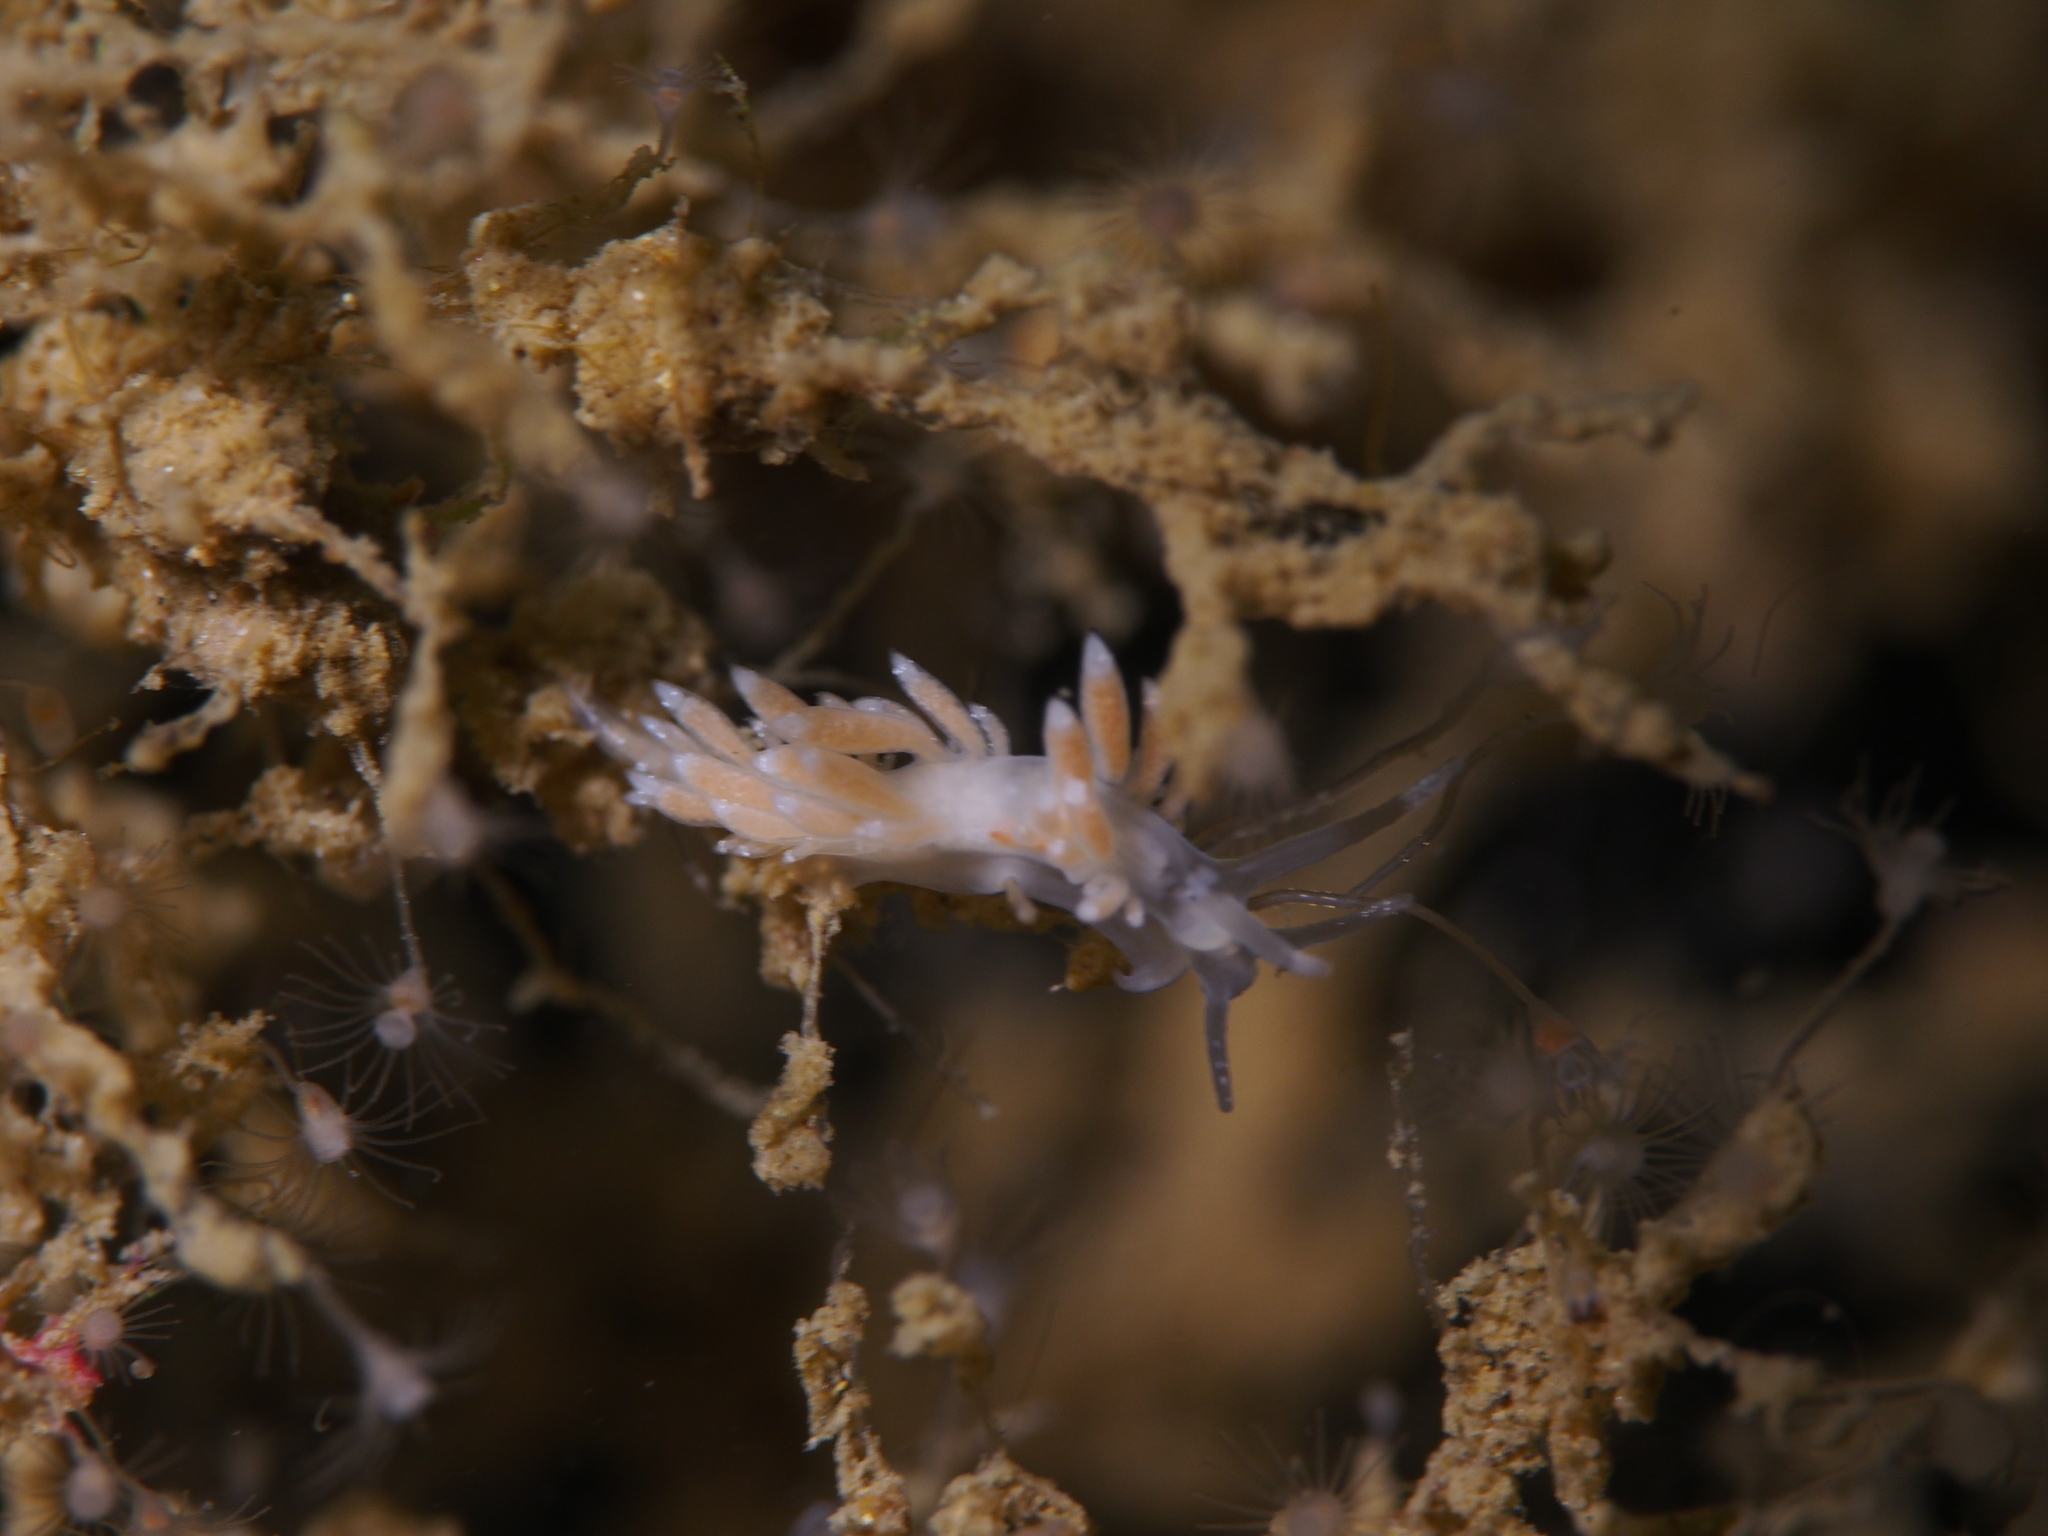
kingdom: Animalia
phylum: Mollusca
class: Gastropoda
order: Nudibranchia
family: Coryphellidae
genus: Coryphella
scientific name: Coryphella gracilis
